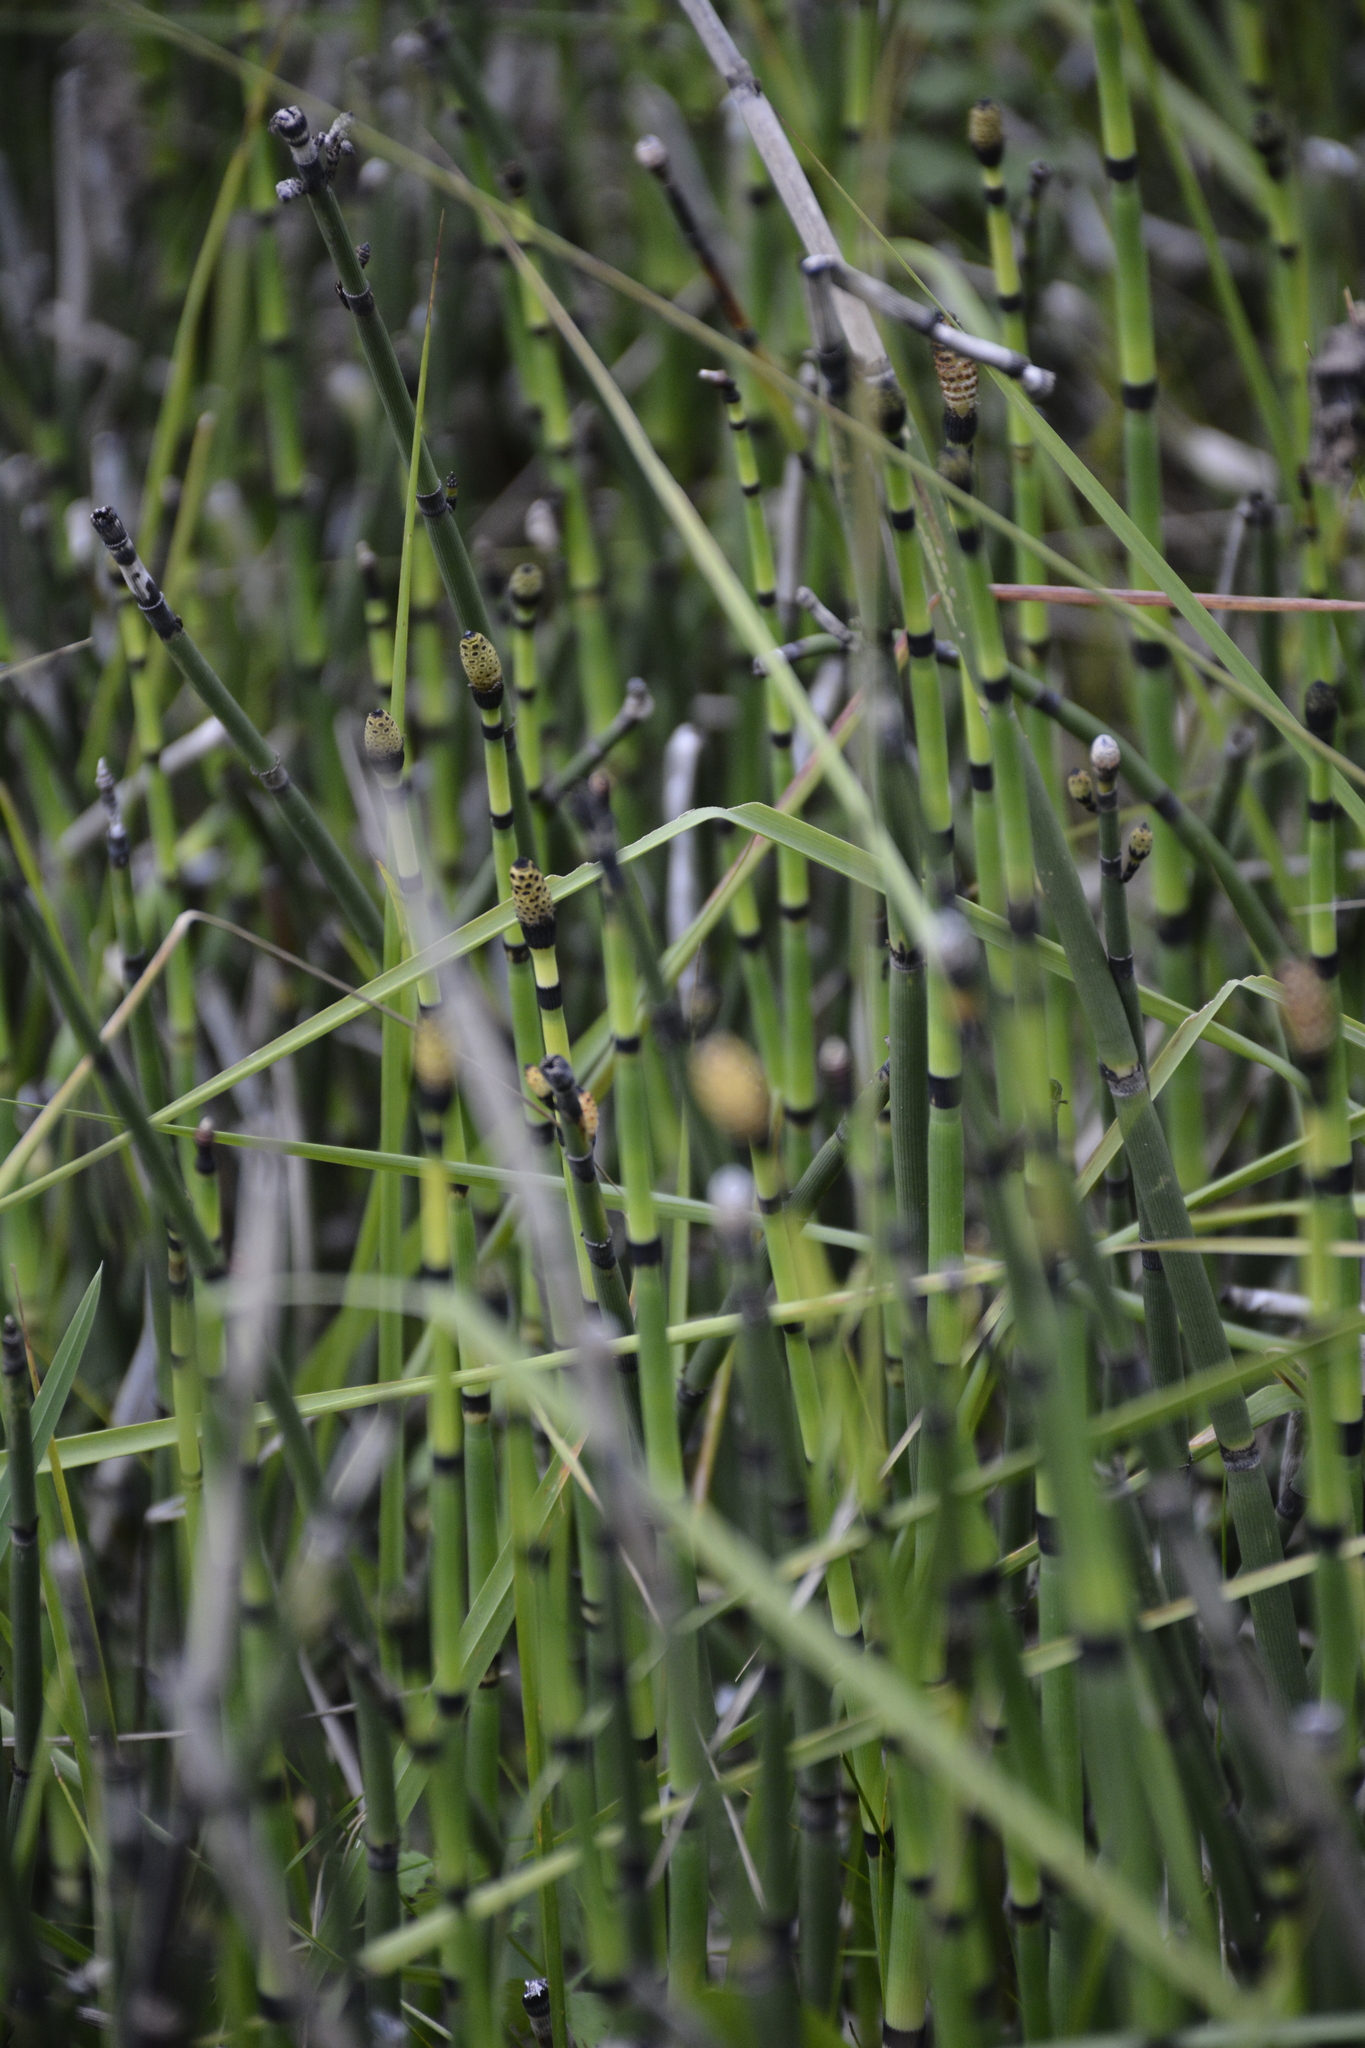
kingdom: Plantae
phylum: Tracheophyta
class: Polypodiopsida
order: Equisetales
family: Equisetaceae
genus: Equisetum
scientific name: Equisetum hyemale
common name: Rough horsetail
